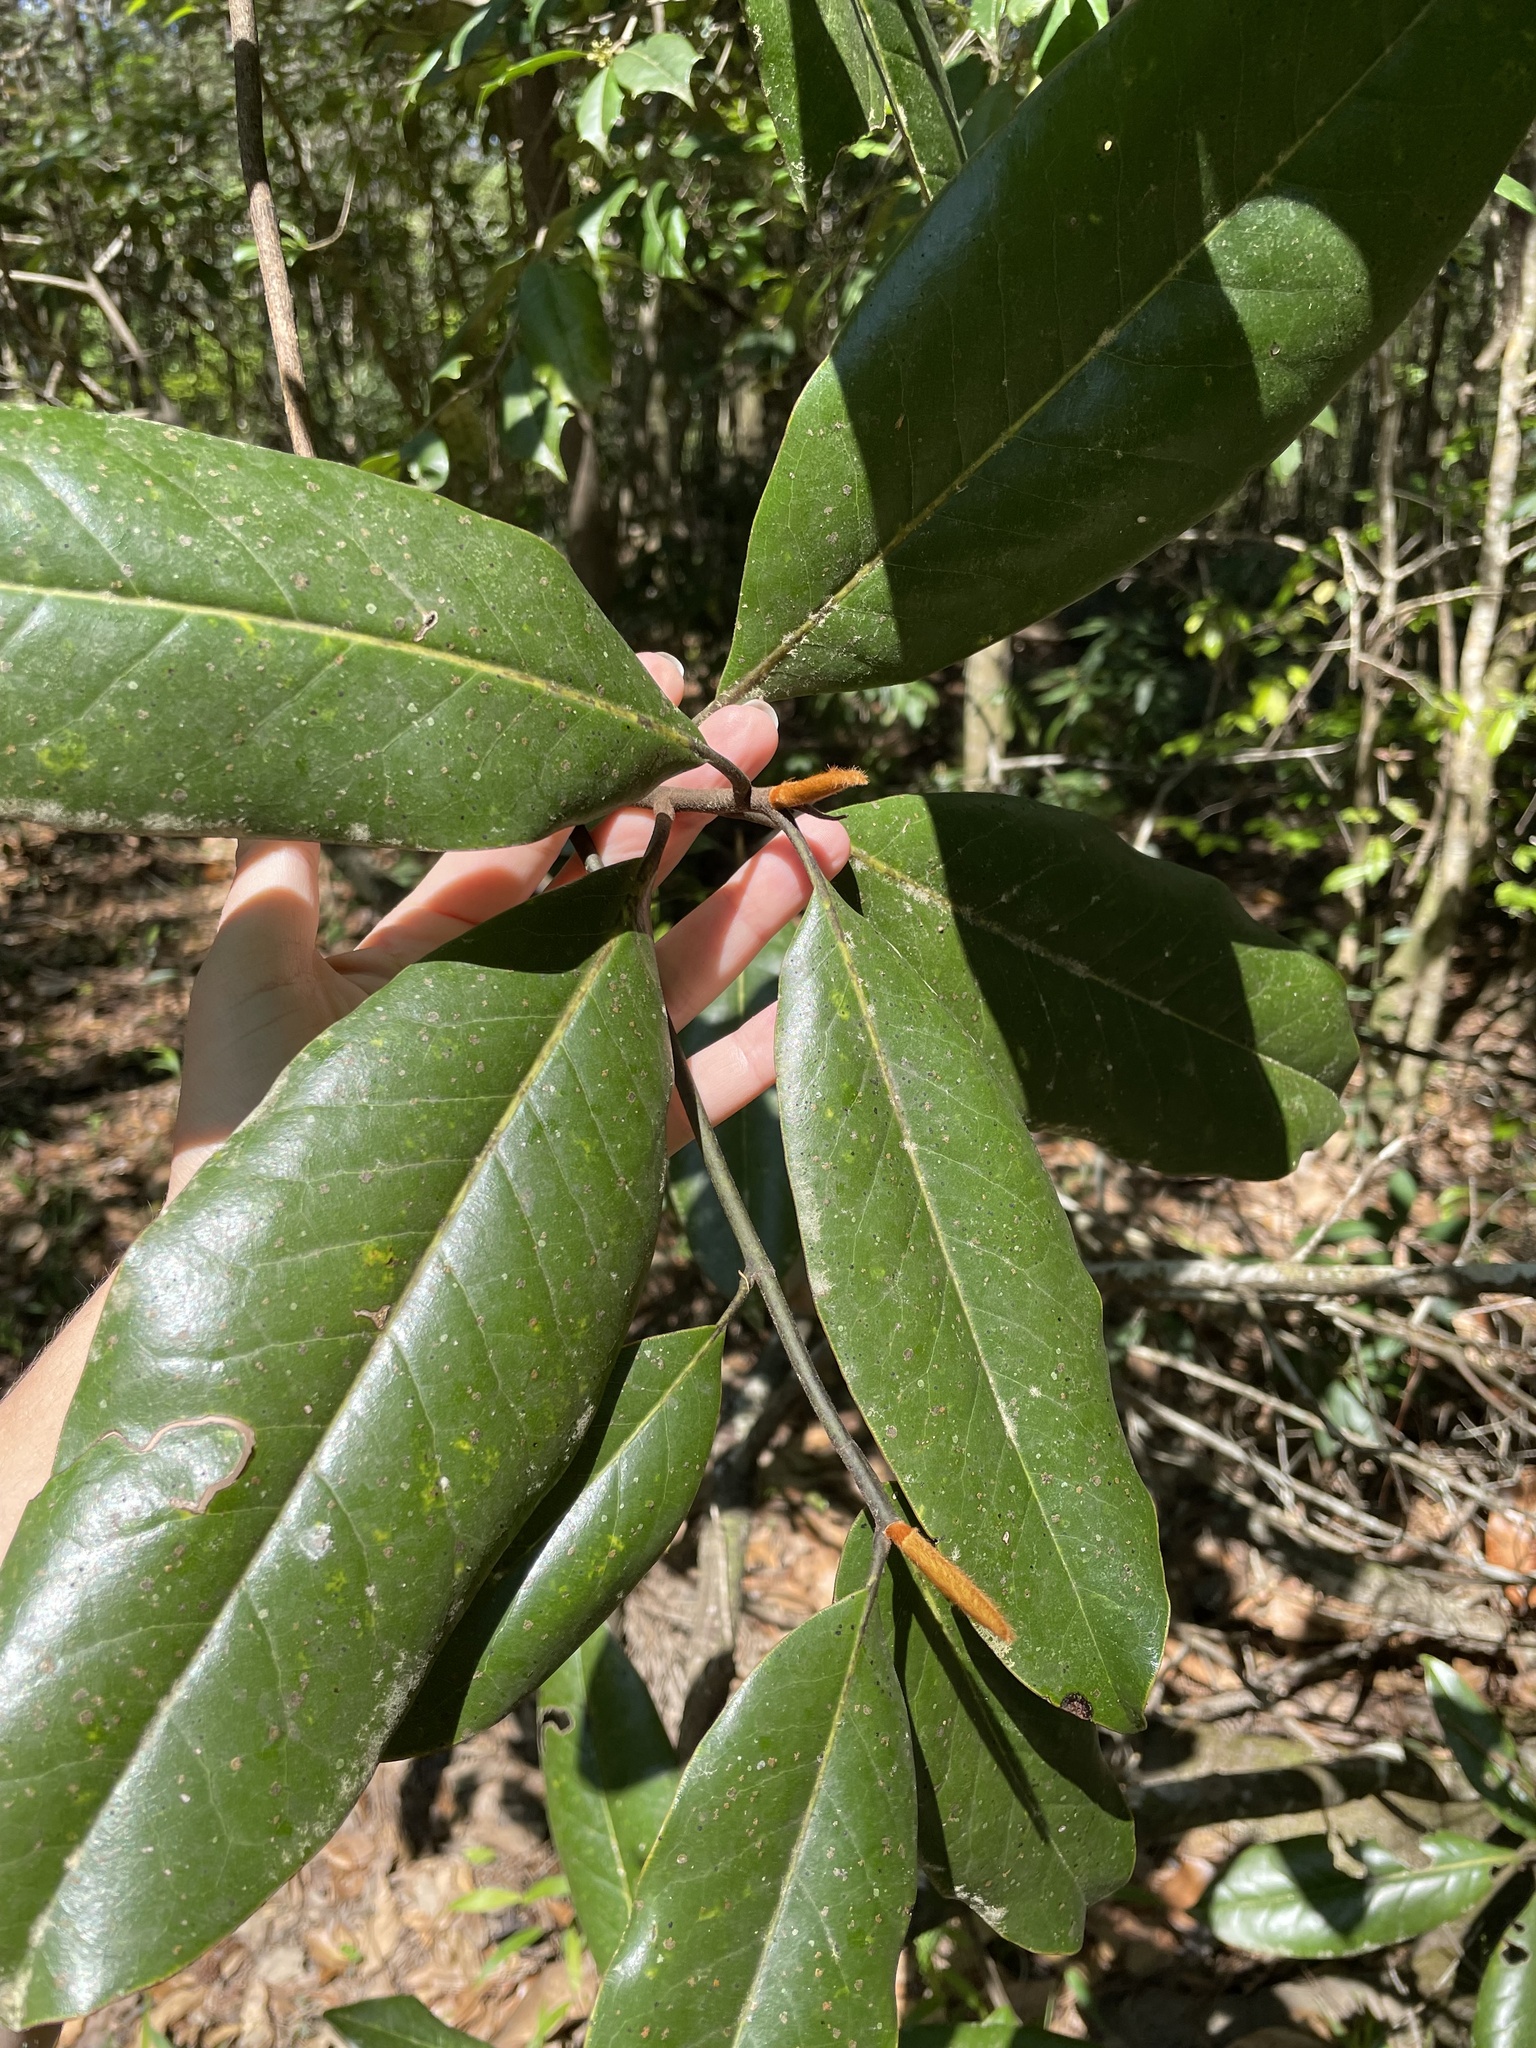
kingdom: Plantae
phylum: Tracheophyta
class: Magnoliopsida
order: Magnoliales
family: Magnoliaceae
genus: Magnolia
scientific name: Magnolia grandiflora
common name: Southern magnolia
